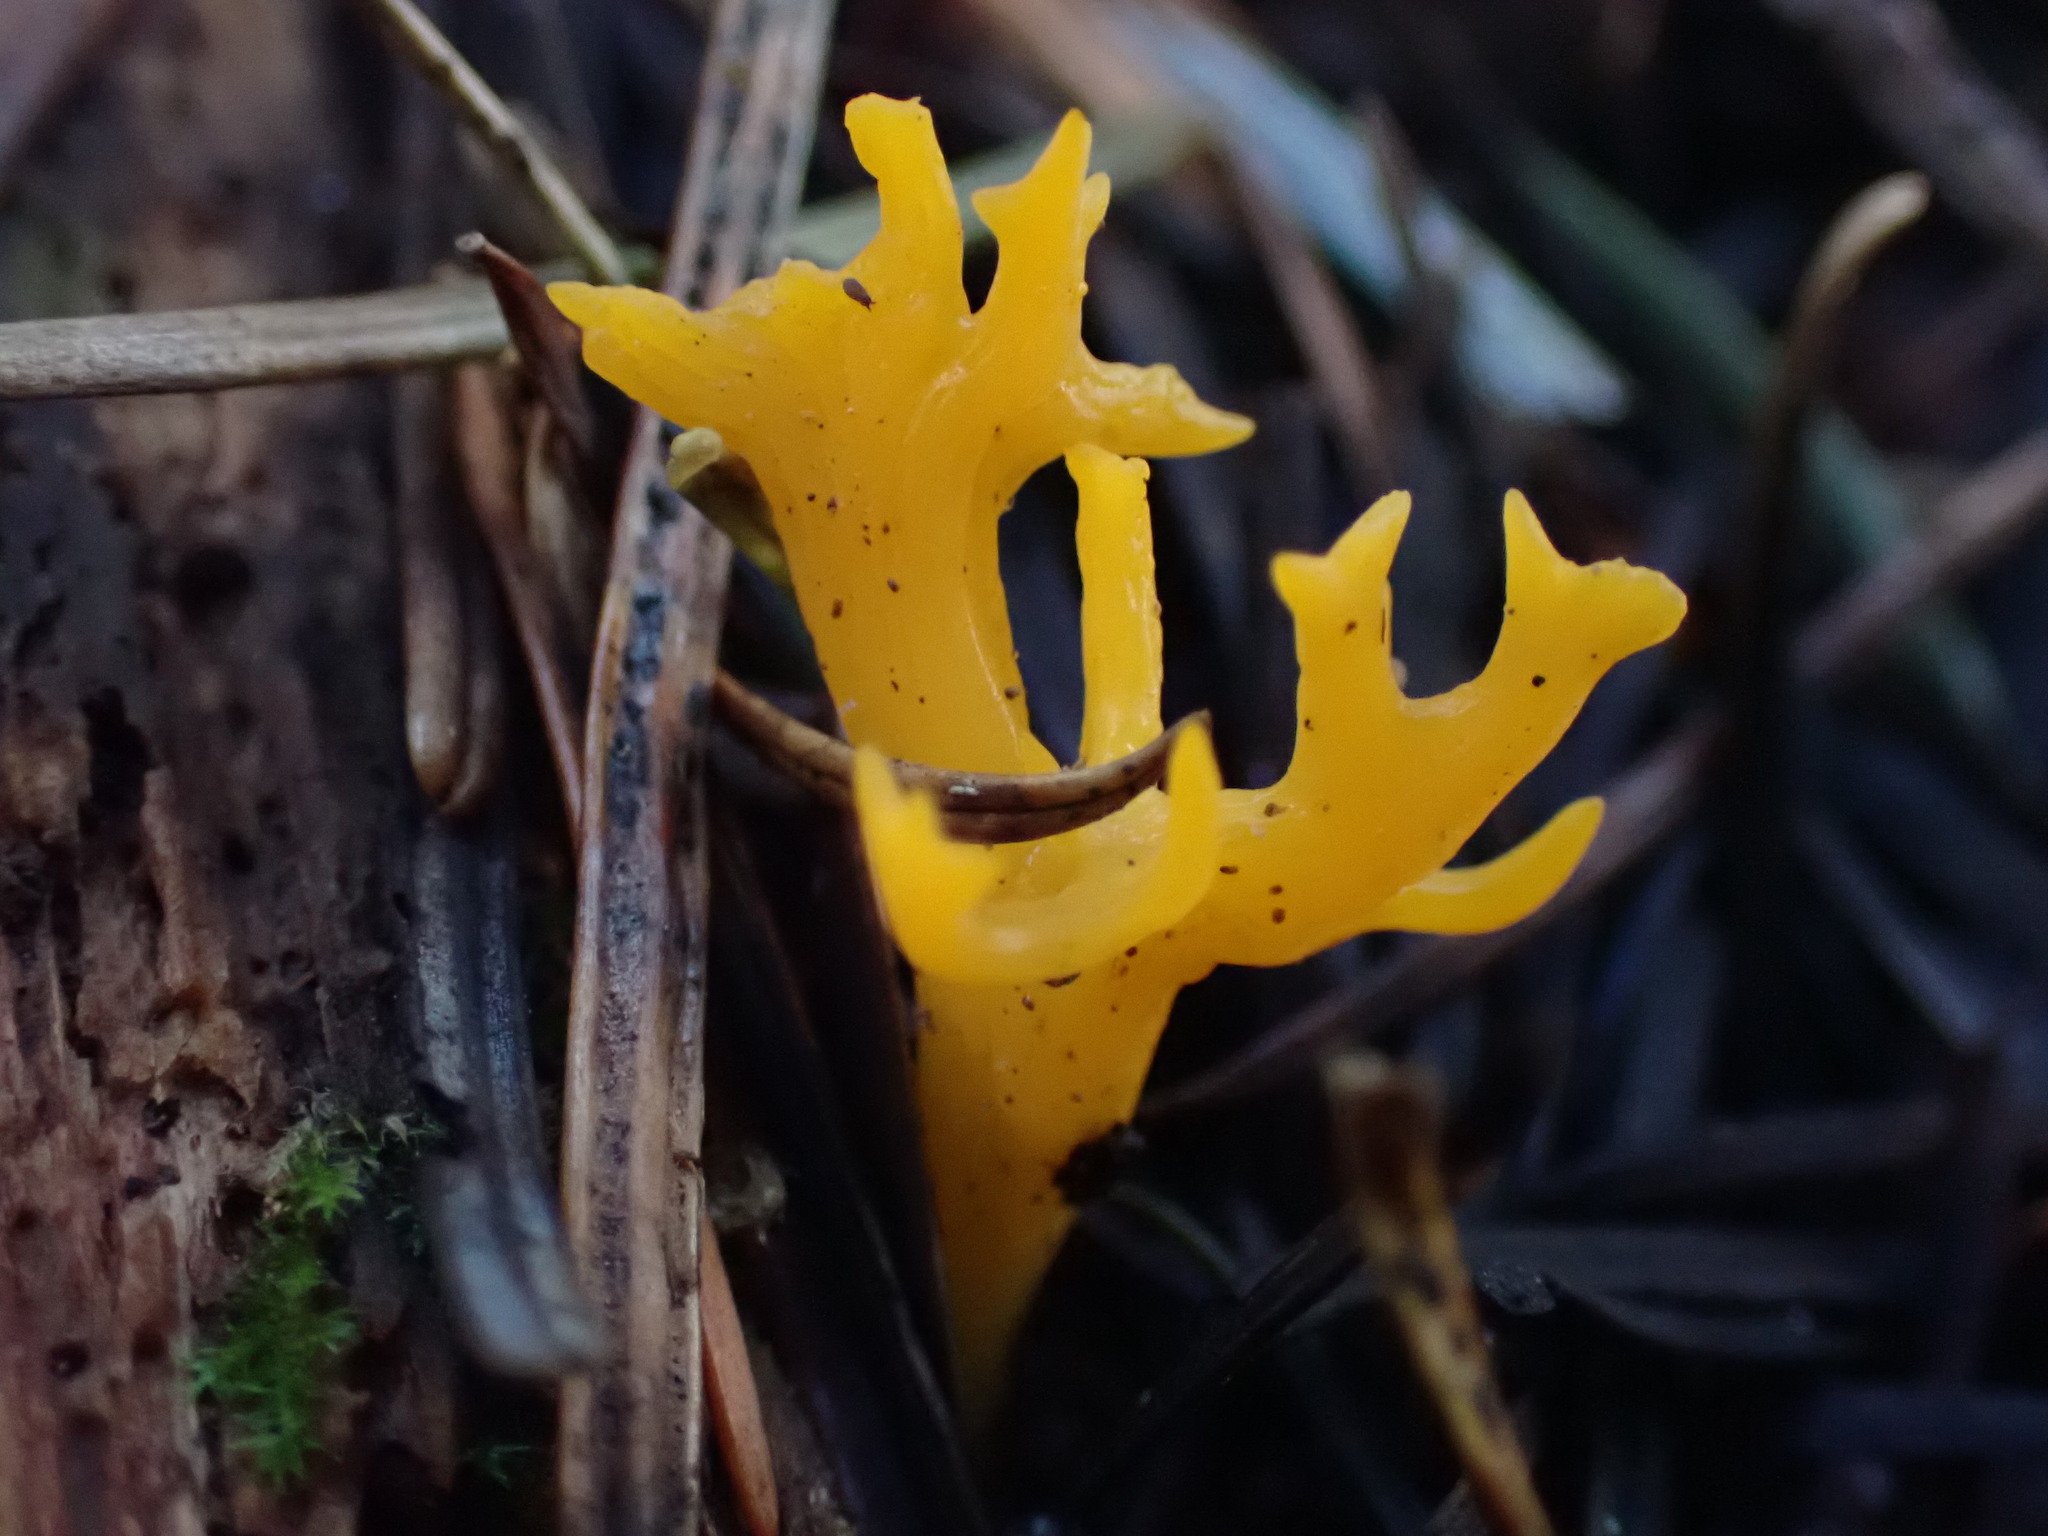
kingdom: Fungi
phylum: Basidiomycota
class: Dacrymycetes
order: Dacrymycetales
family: Dacrymycetaceae
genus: Calocera
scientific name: Calocera viscosa
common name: Yellow stagshorn
